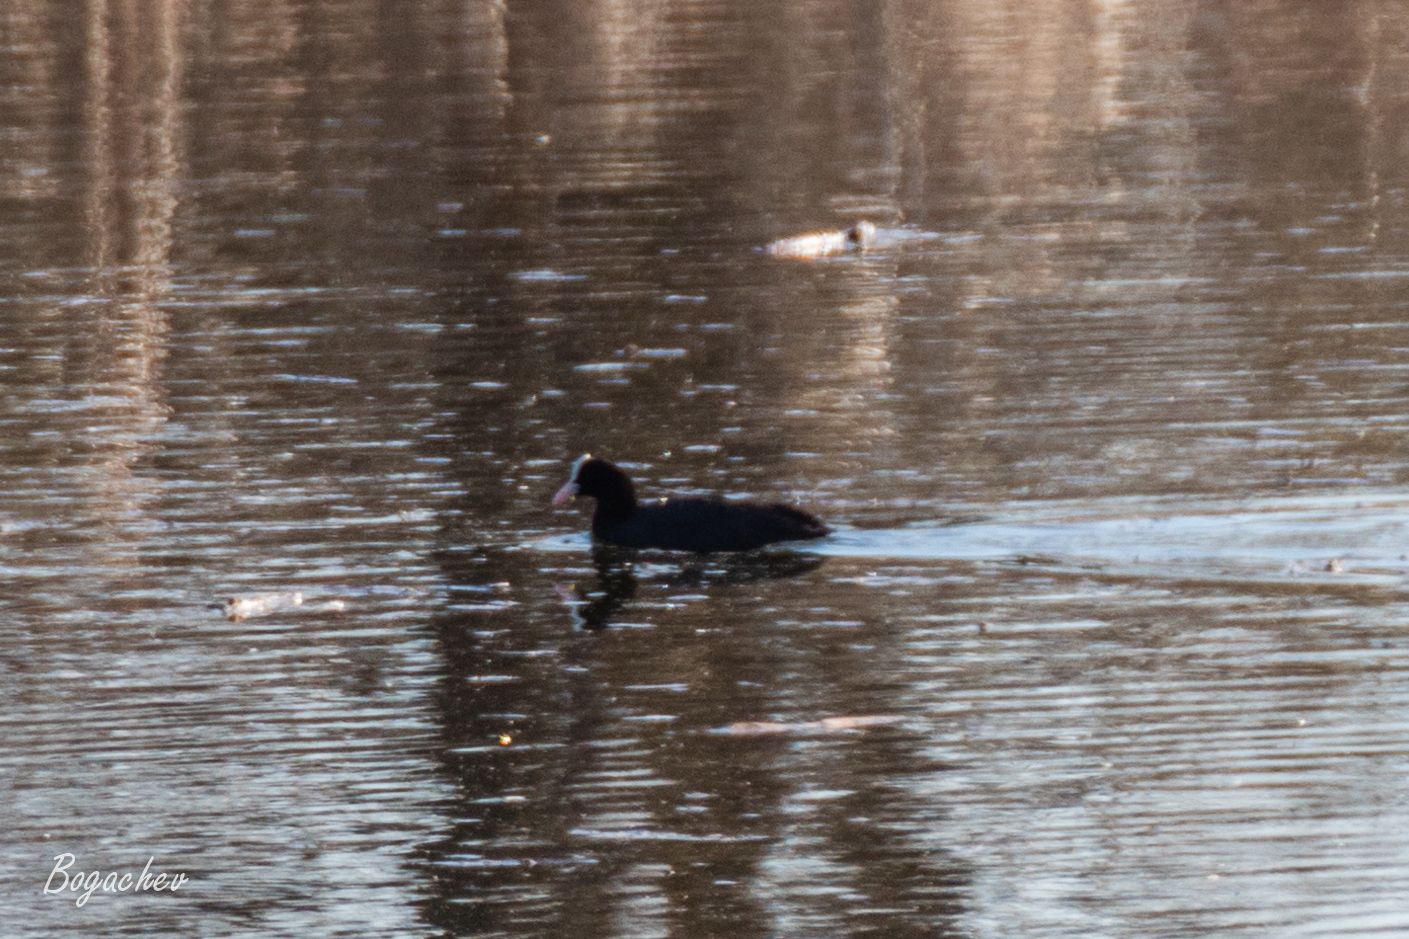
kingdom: Animalia
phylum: Chordata
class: Aves
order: Gruiformes
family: Rallidae
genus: Fulica
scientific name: Fulica atra
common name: Eurasian coot
